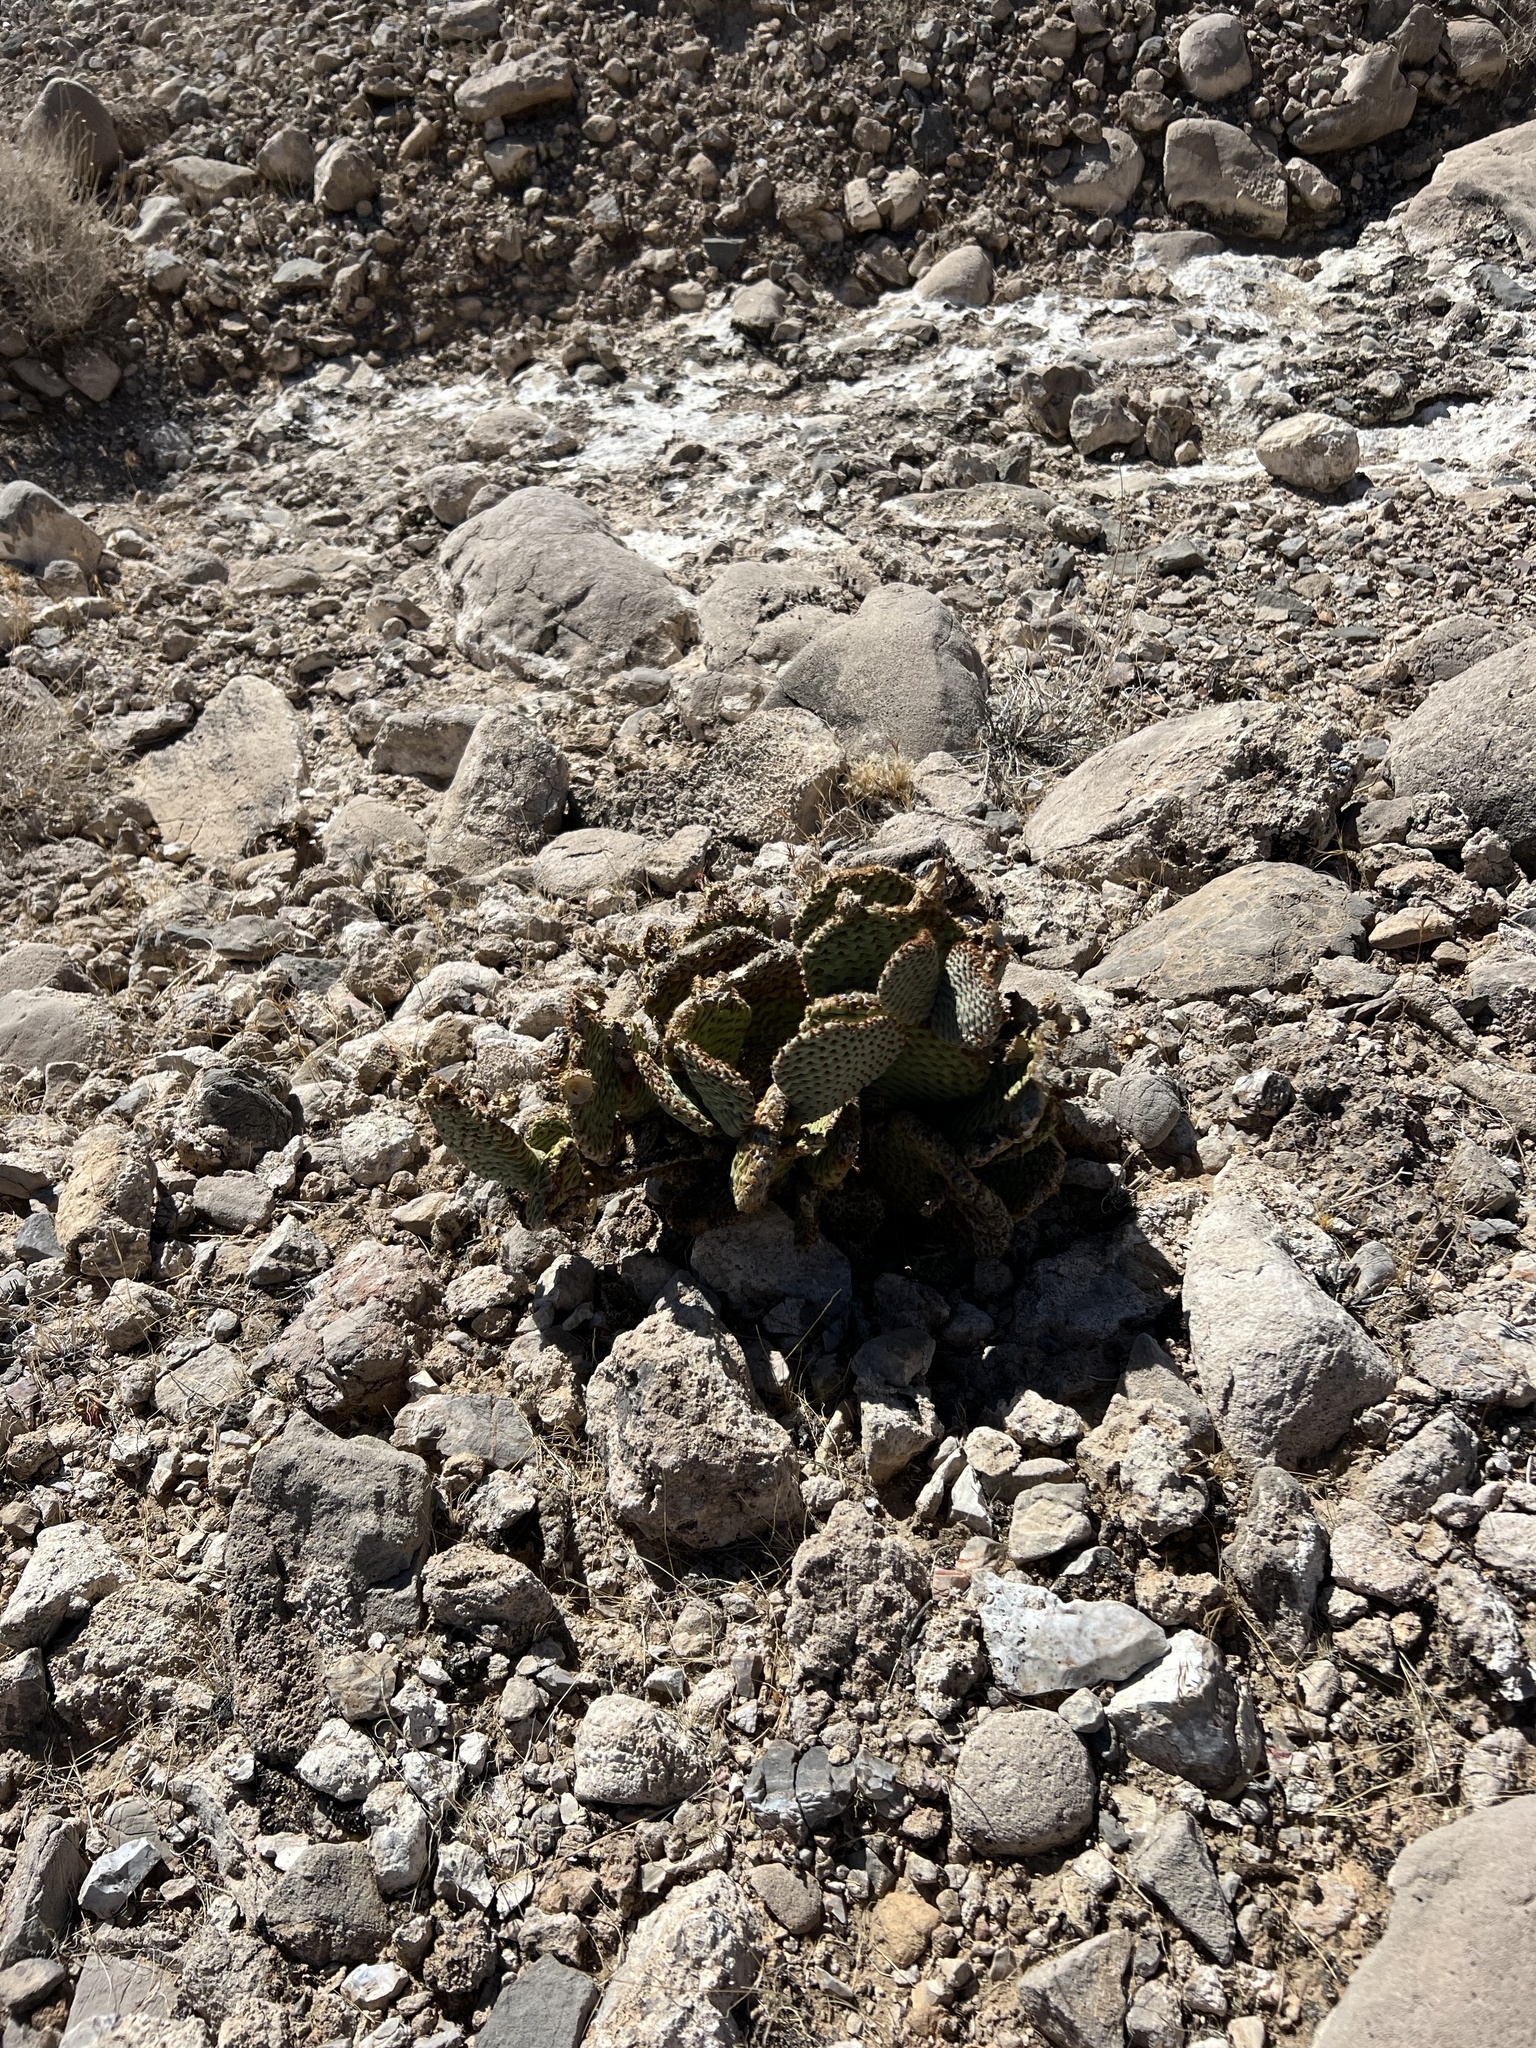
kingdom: Plantae
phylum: Tracheophyta
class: Magnoliopsida
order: Caryophyllales
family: Cactaceae
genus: Opuntia
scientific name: Opuntia basilaris
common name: Beavertail prickly-pear
